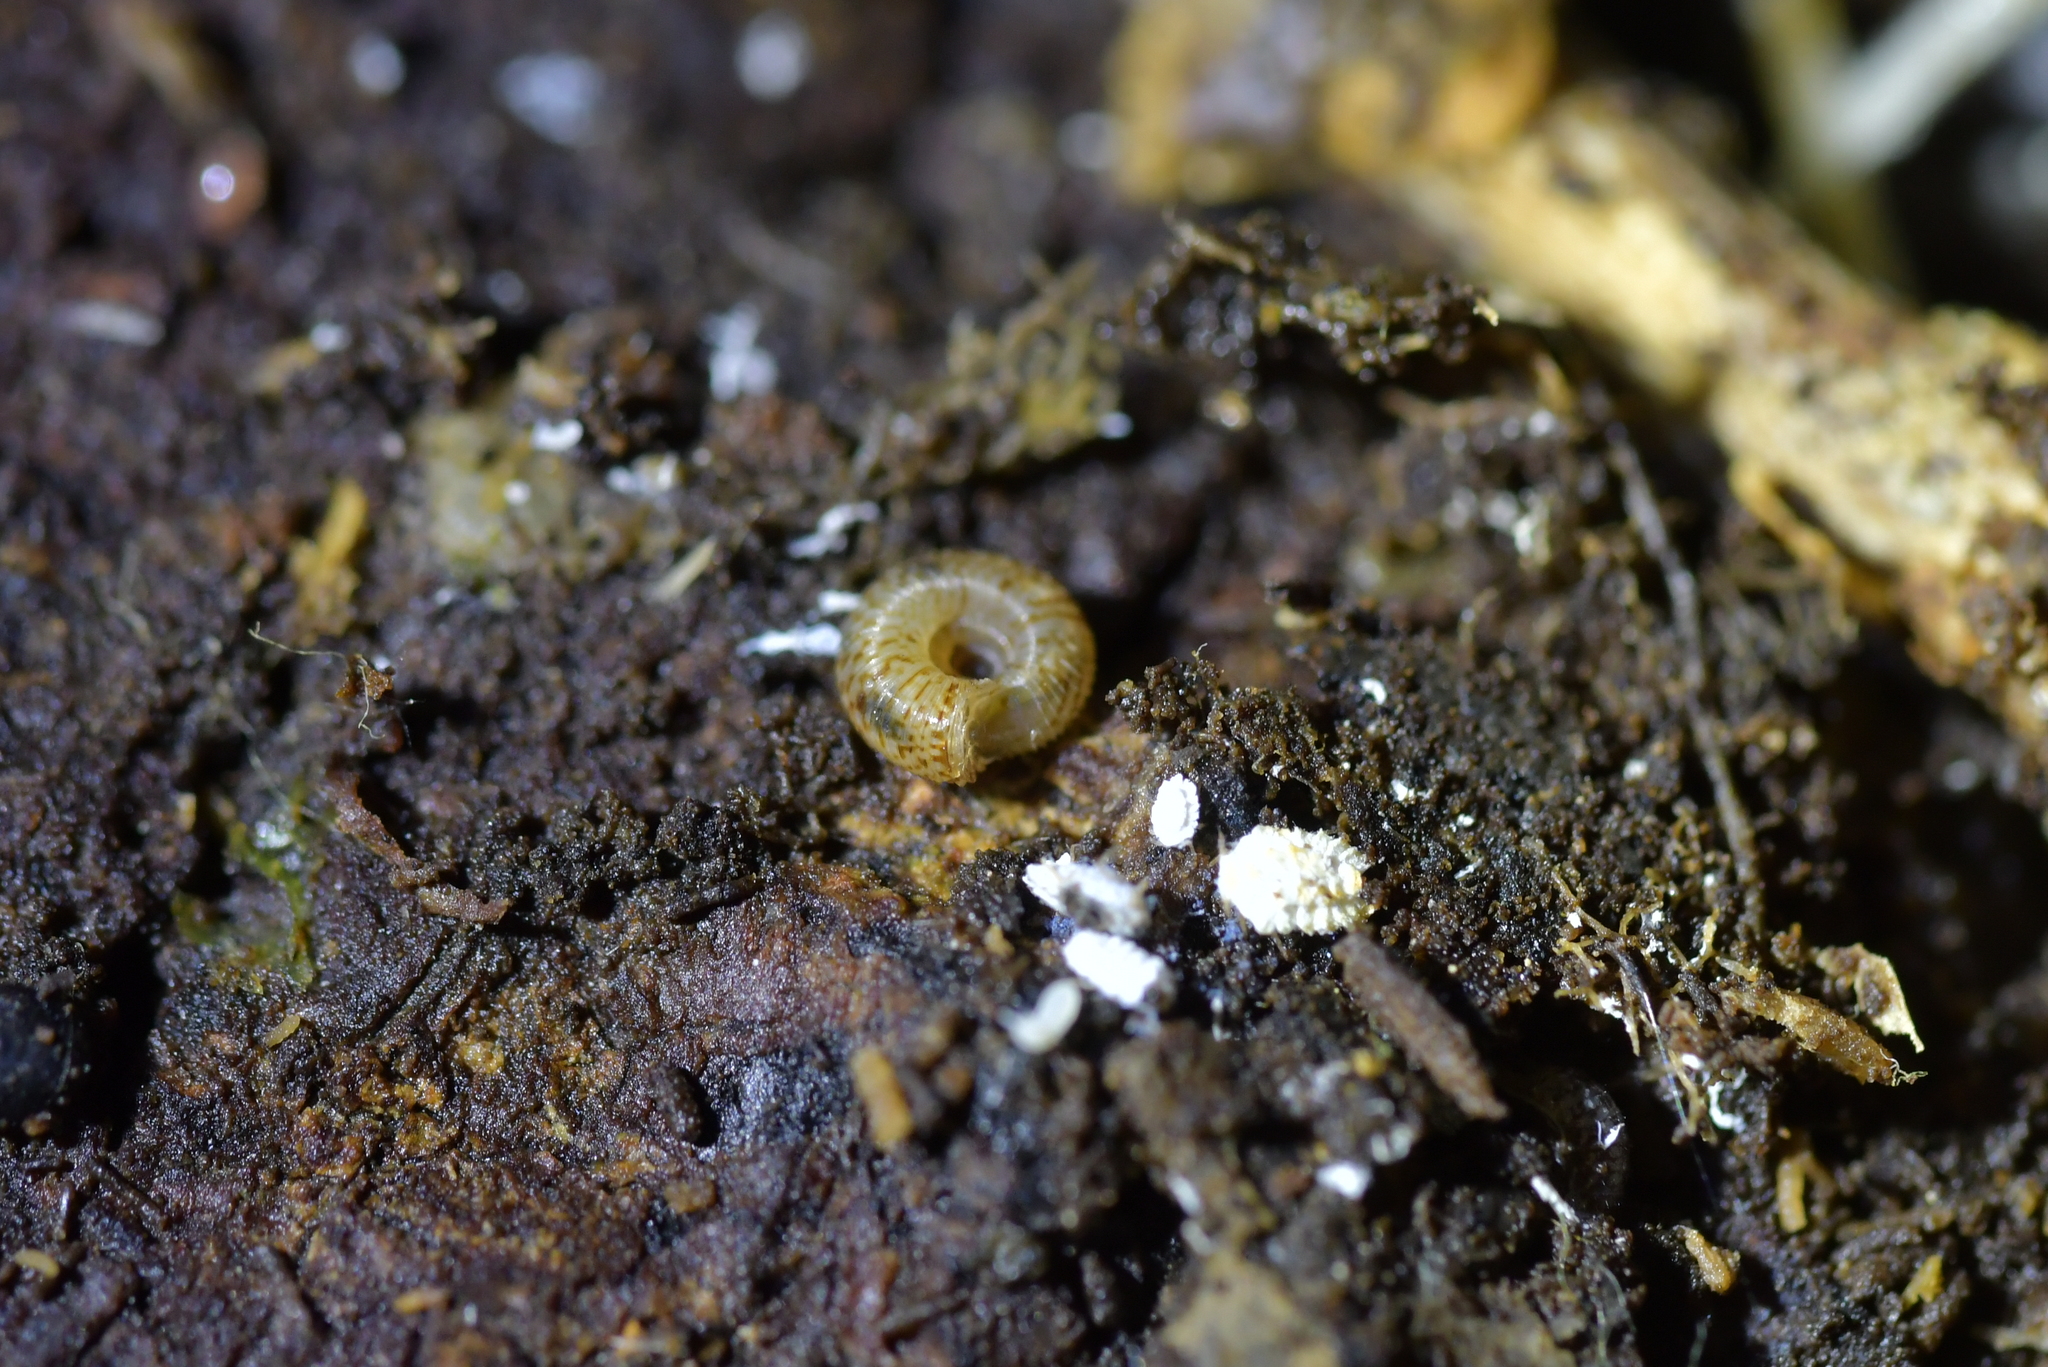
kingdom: Animalia
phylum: Mollusca
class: Gastropoda
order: Stylommatophora
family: Charopidae
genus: Cavellia
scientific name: Cavellia buccinella
